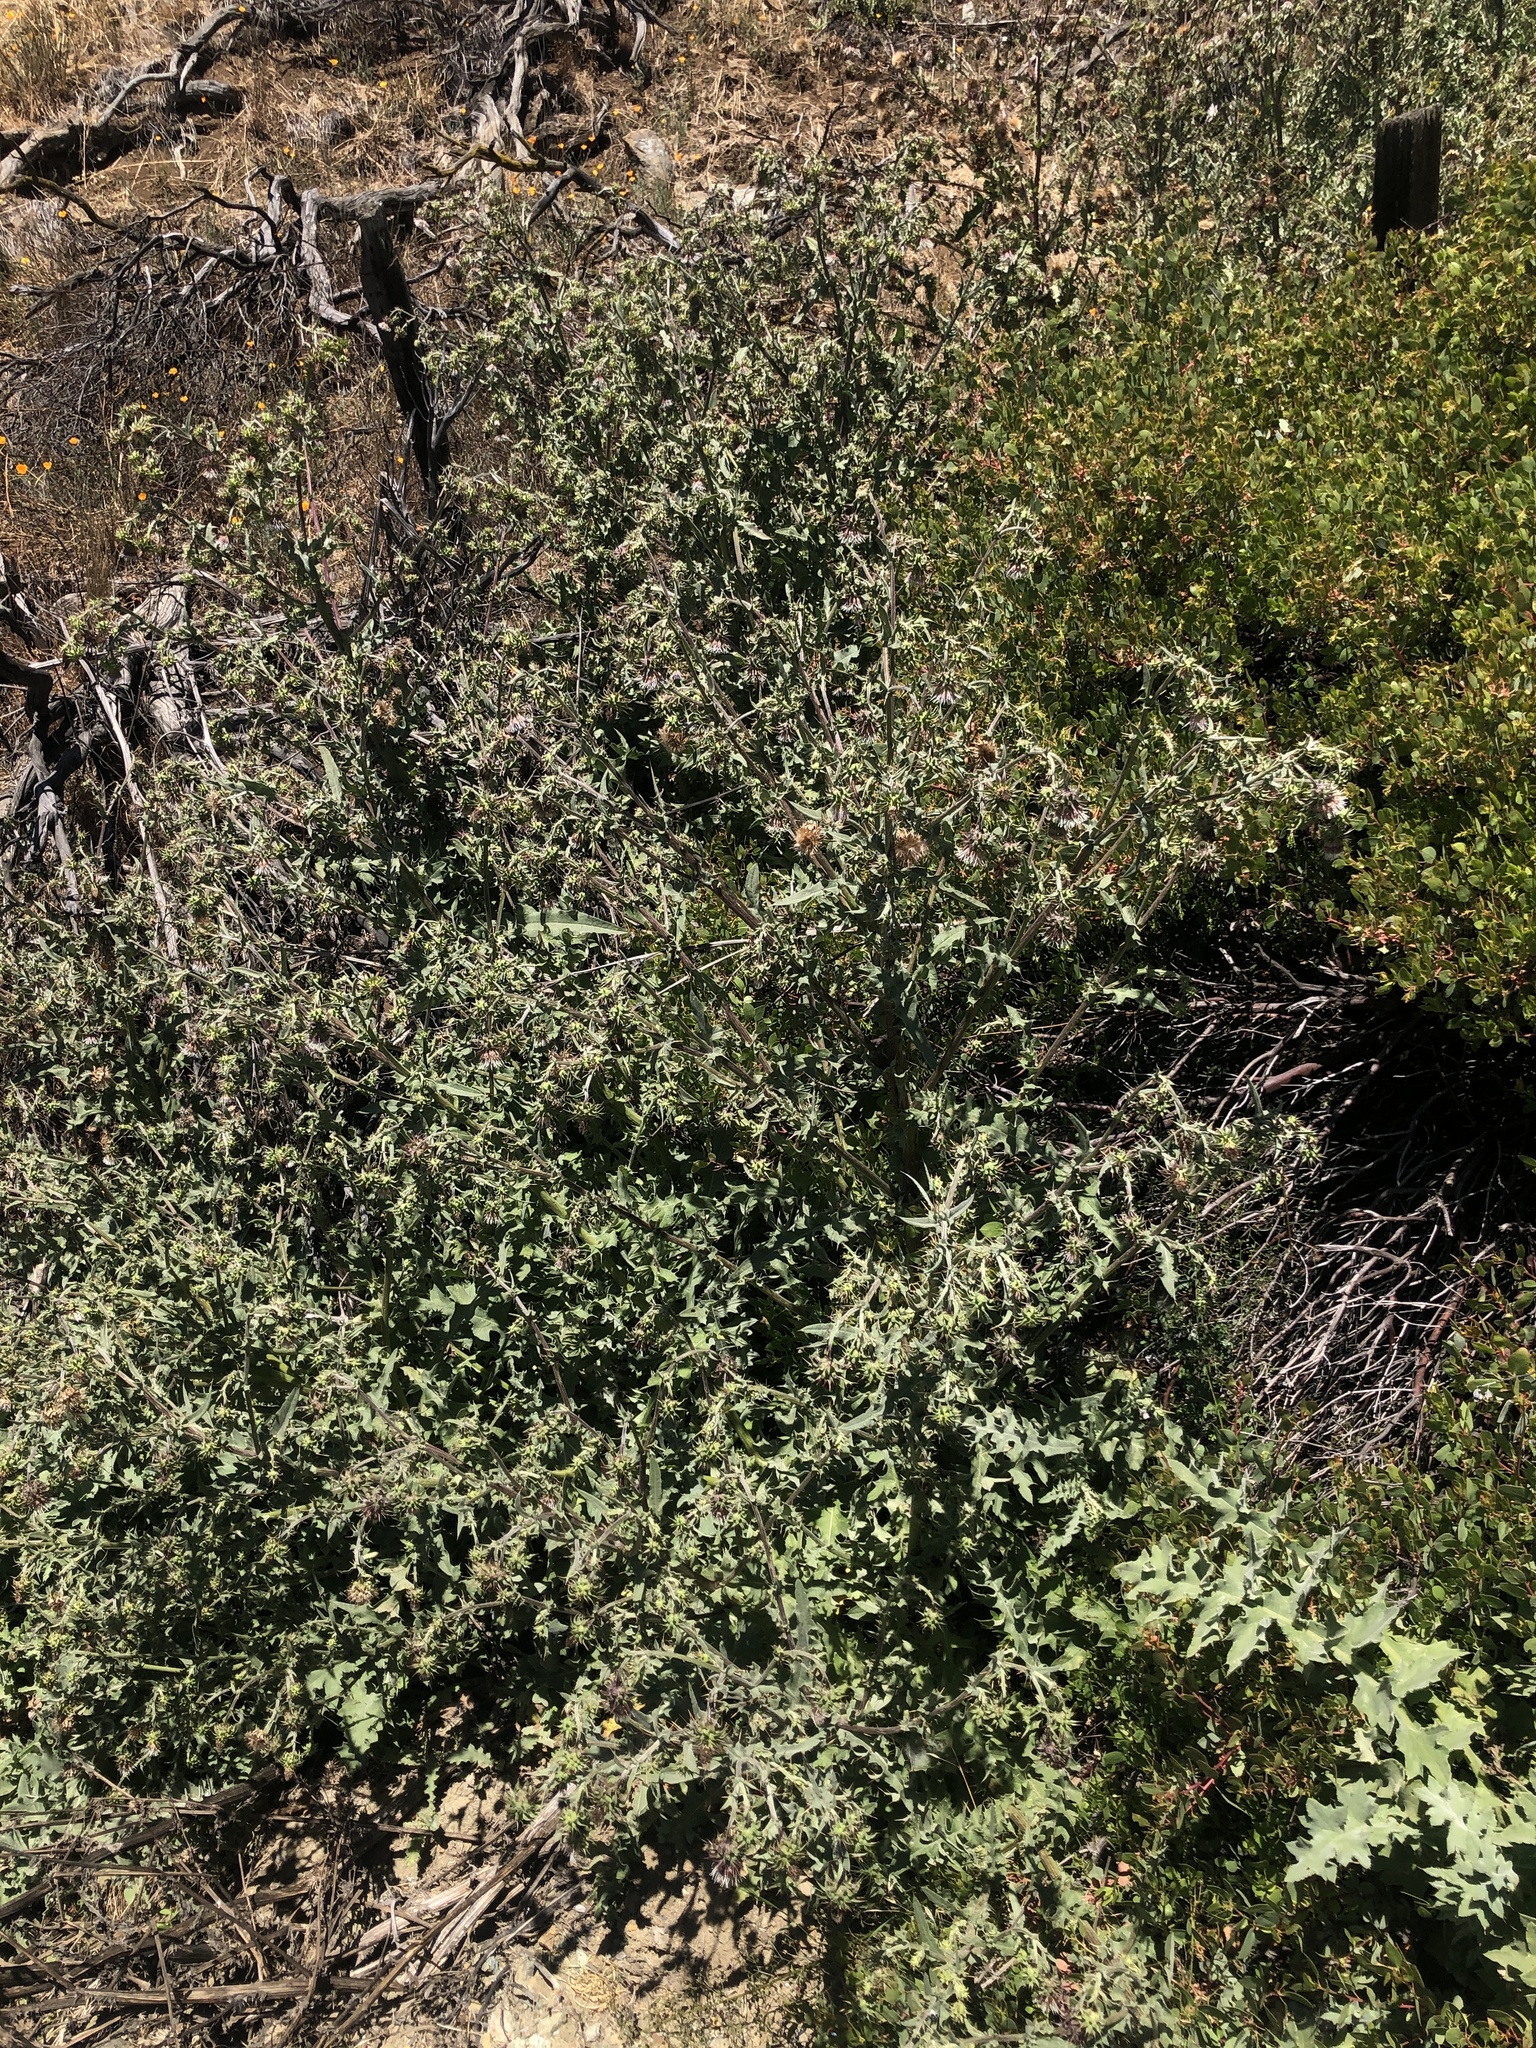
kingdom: Plantae
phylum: Tracheophyta
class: Magnoliopsida
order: Asterales
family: Asteraceae
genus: Cirsium
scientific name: Cirsium fontinale
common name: Fountain thistle
